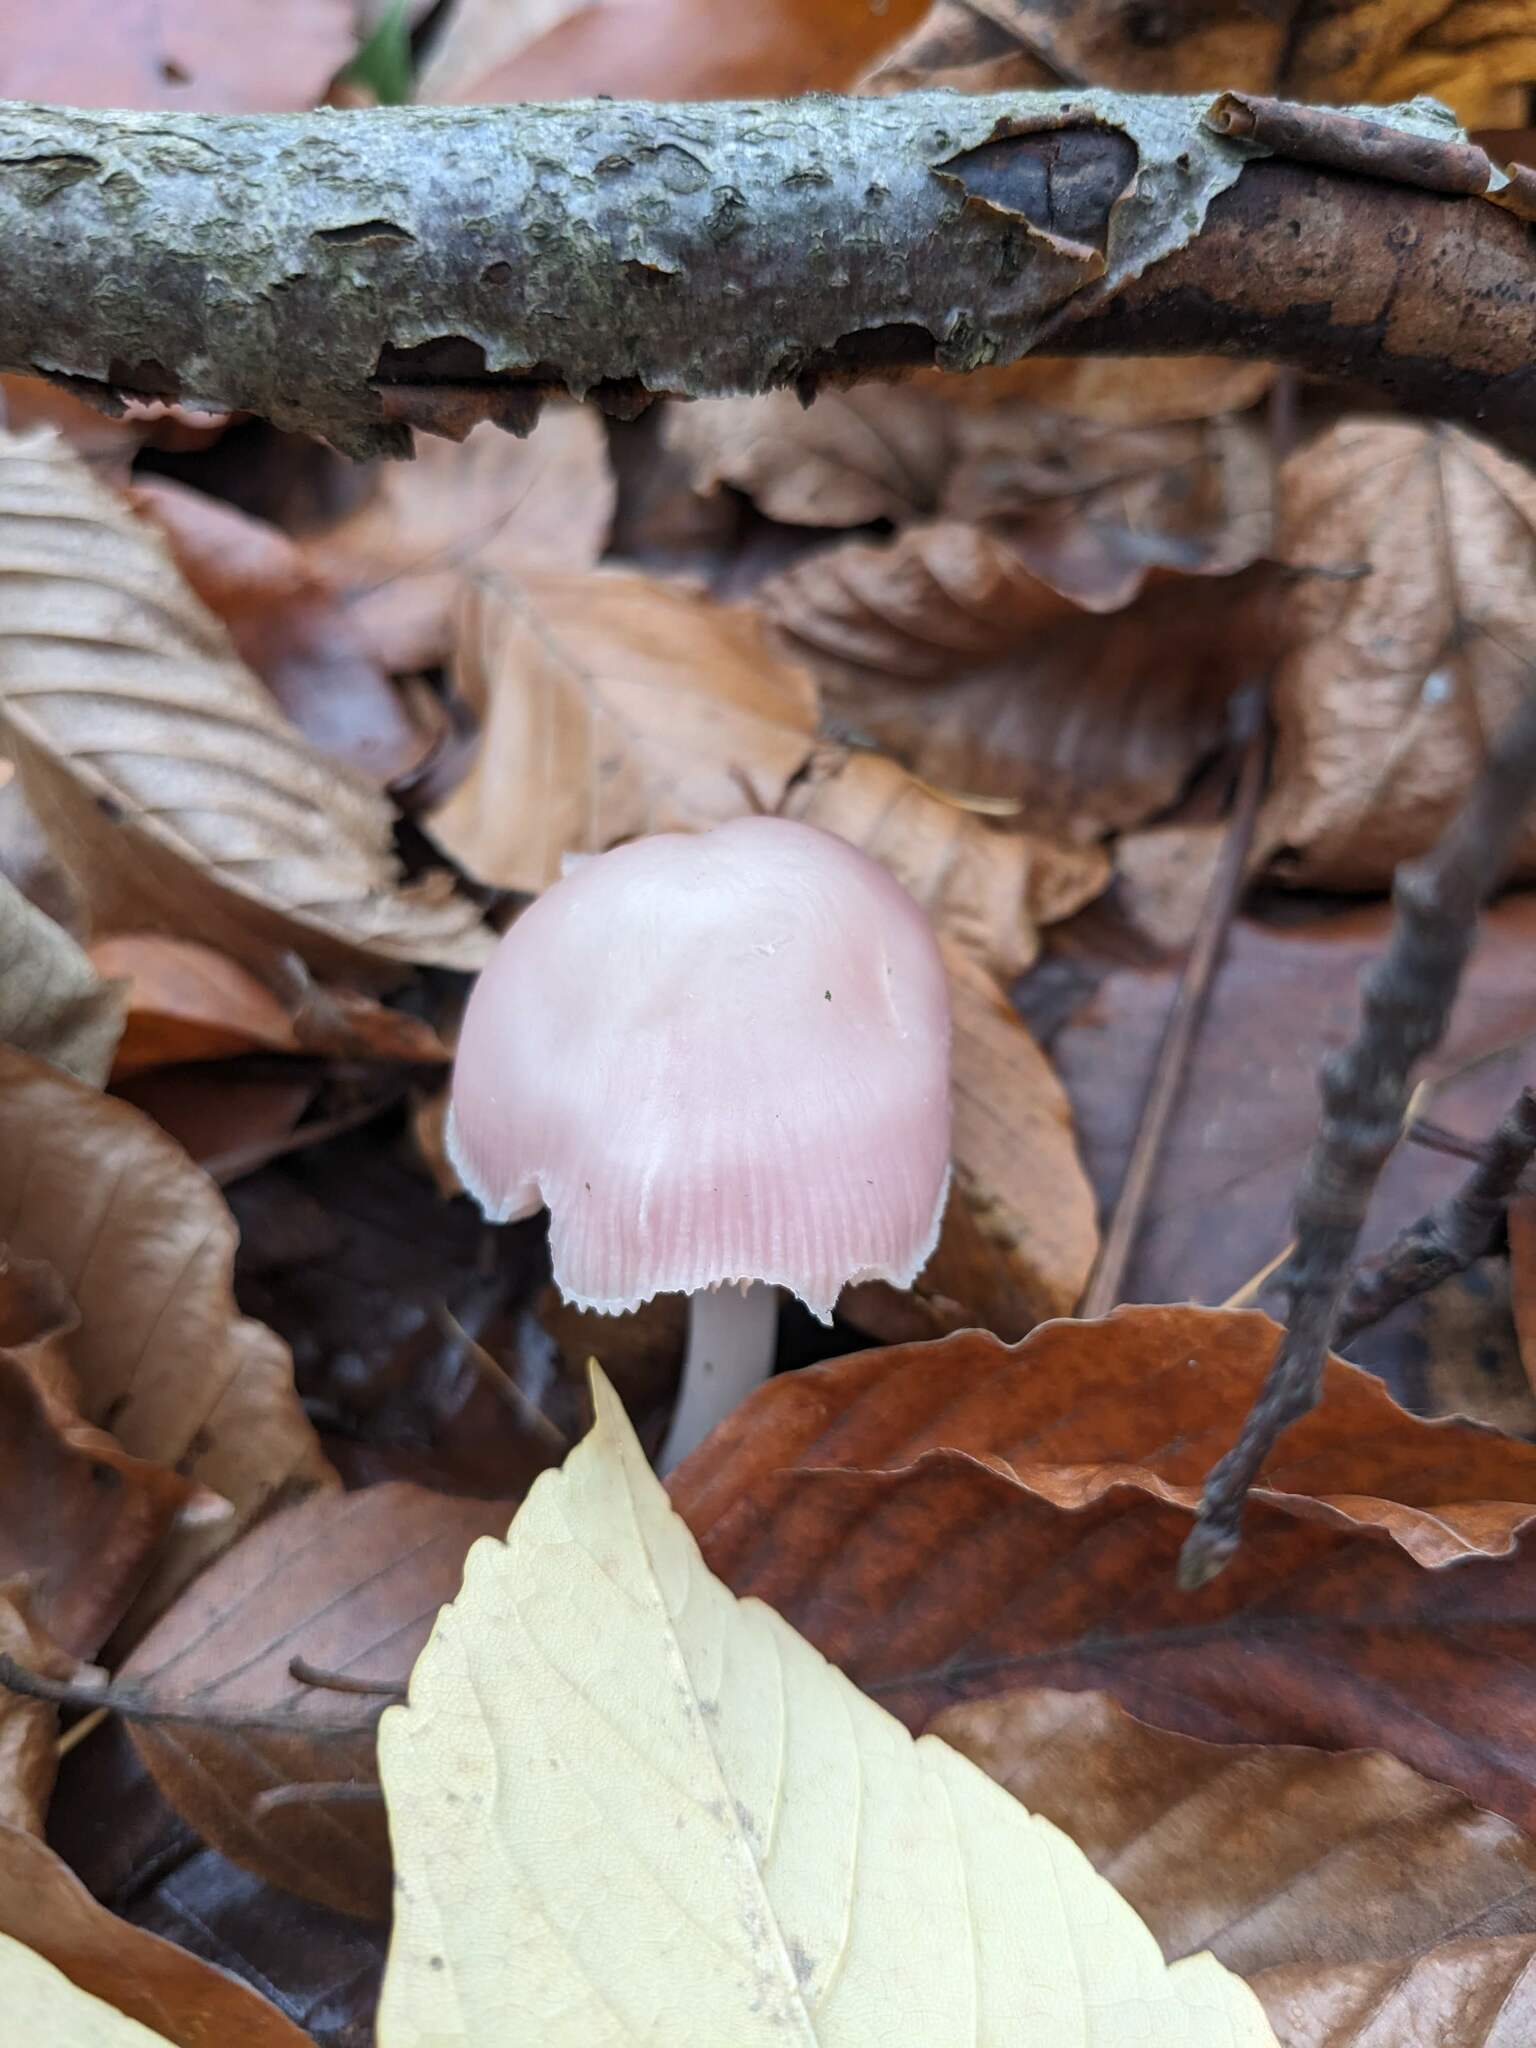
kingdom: Fungi
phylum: Basidiomycota
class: Agaricomycetes
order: Agaricales
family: Mycenaceae
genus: Mycena
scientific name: Mycena rosea
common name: Rosy bonnet
